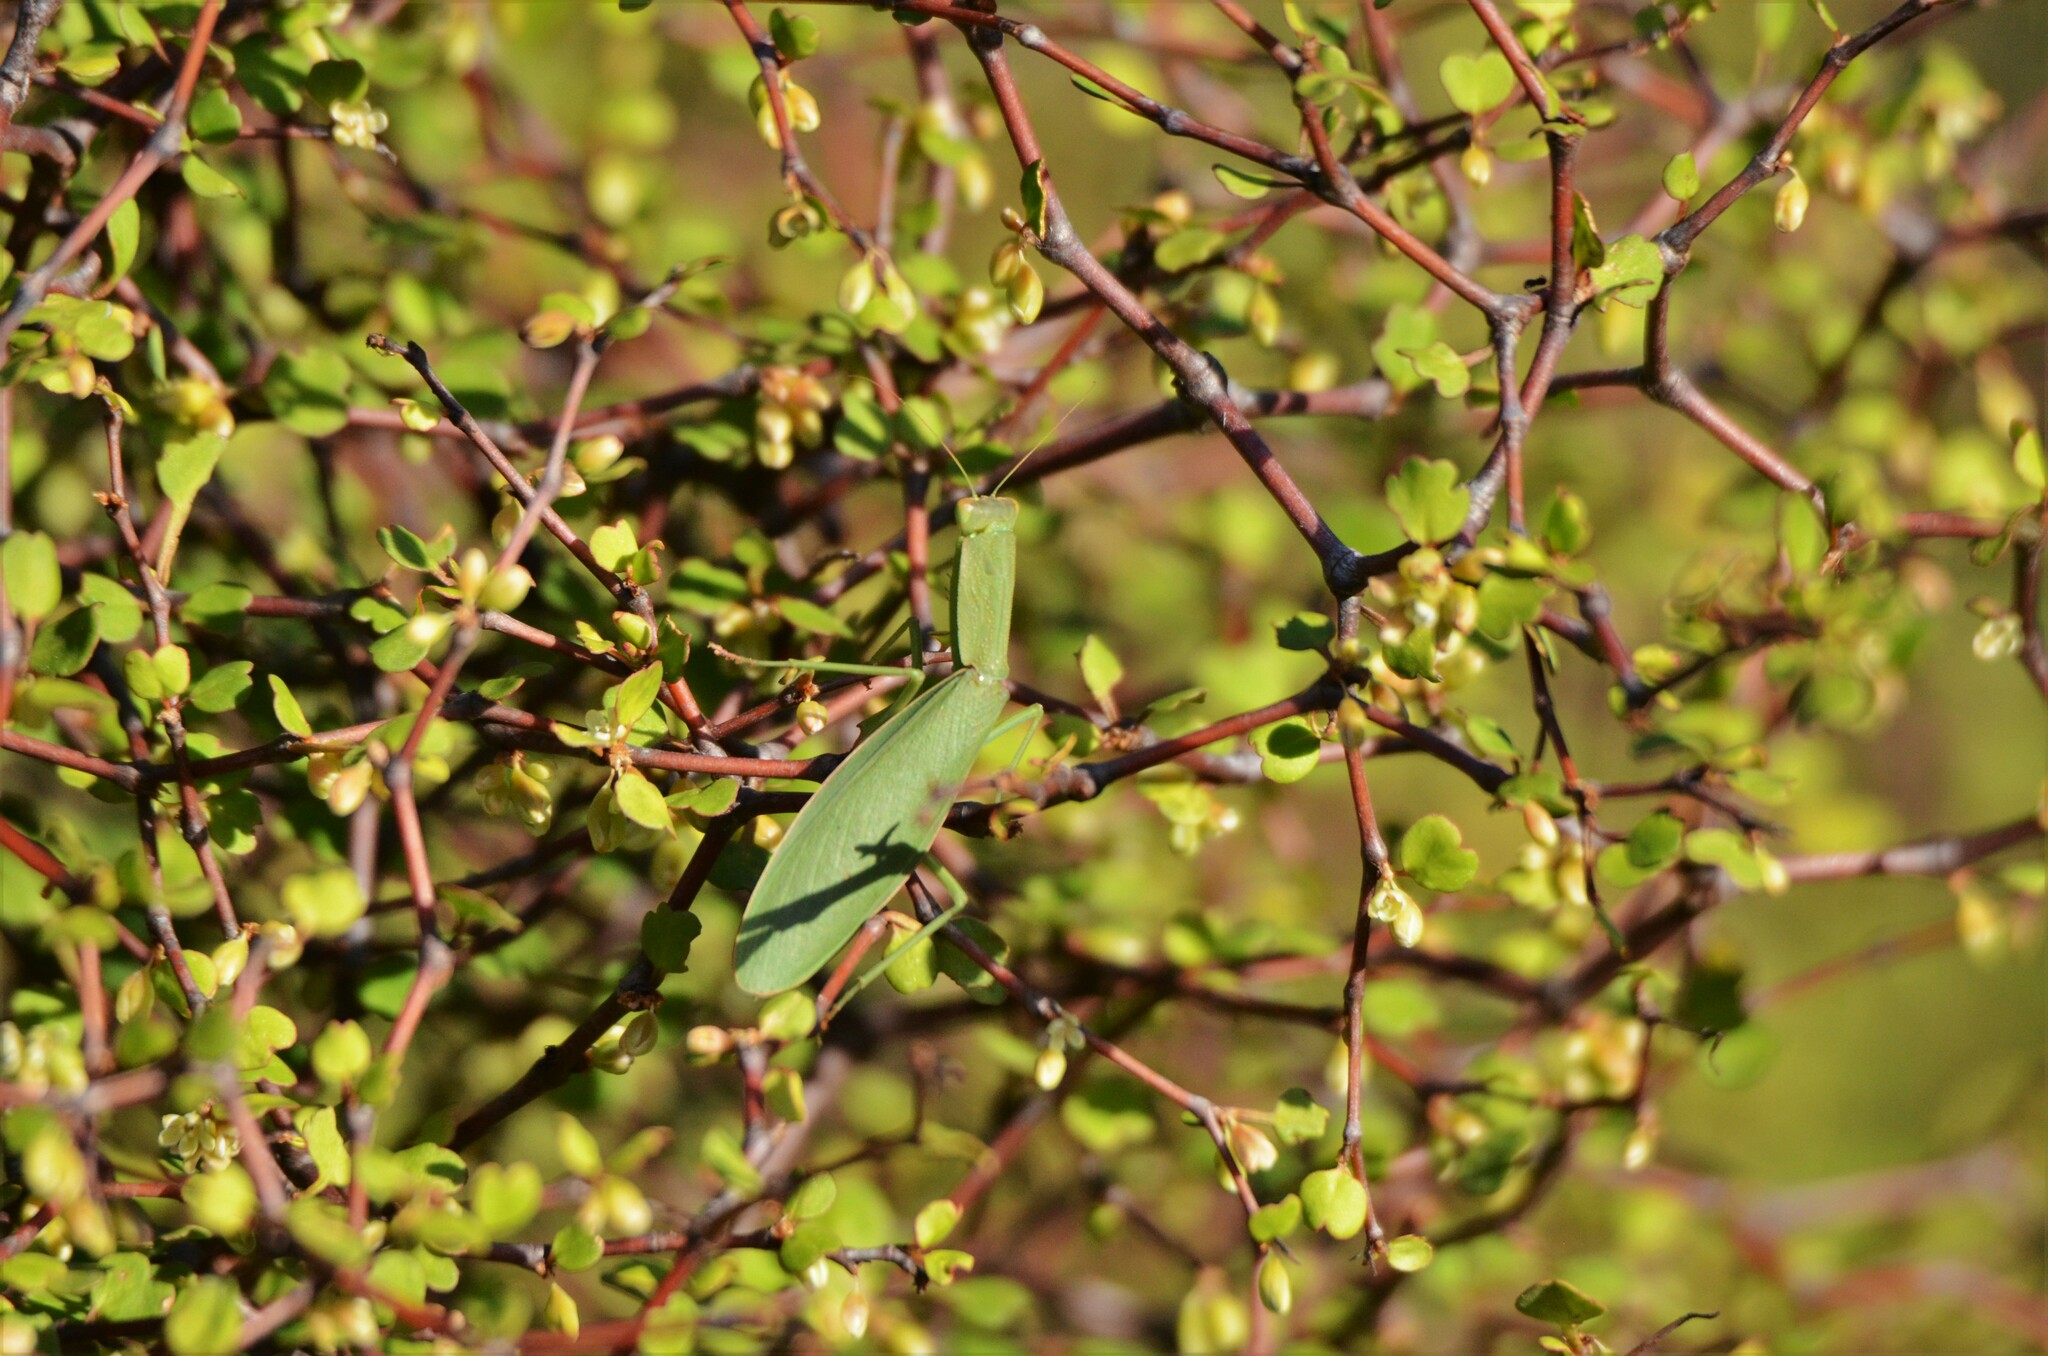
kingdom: Animalia
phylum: Arthropoda
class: Insecta
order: Mantodea
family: Mantidae
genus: Orthodera
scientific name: Orthodera novaezealandiae
